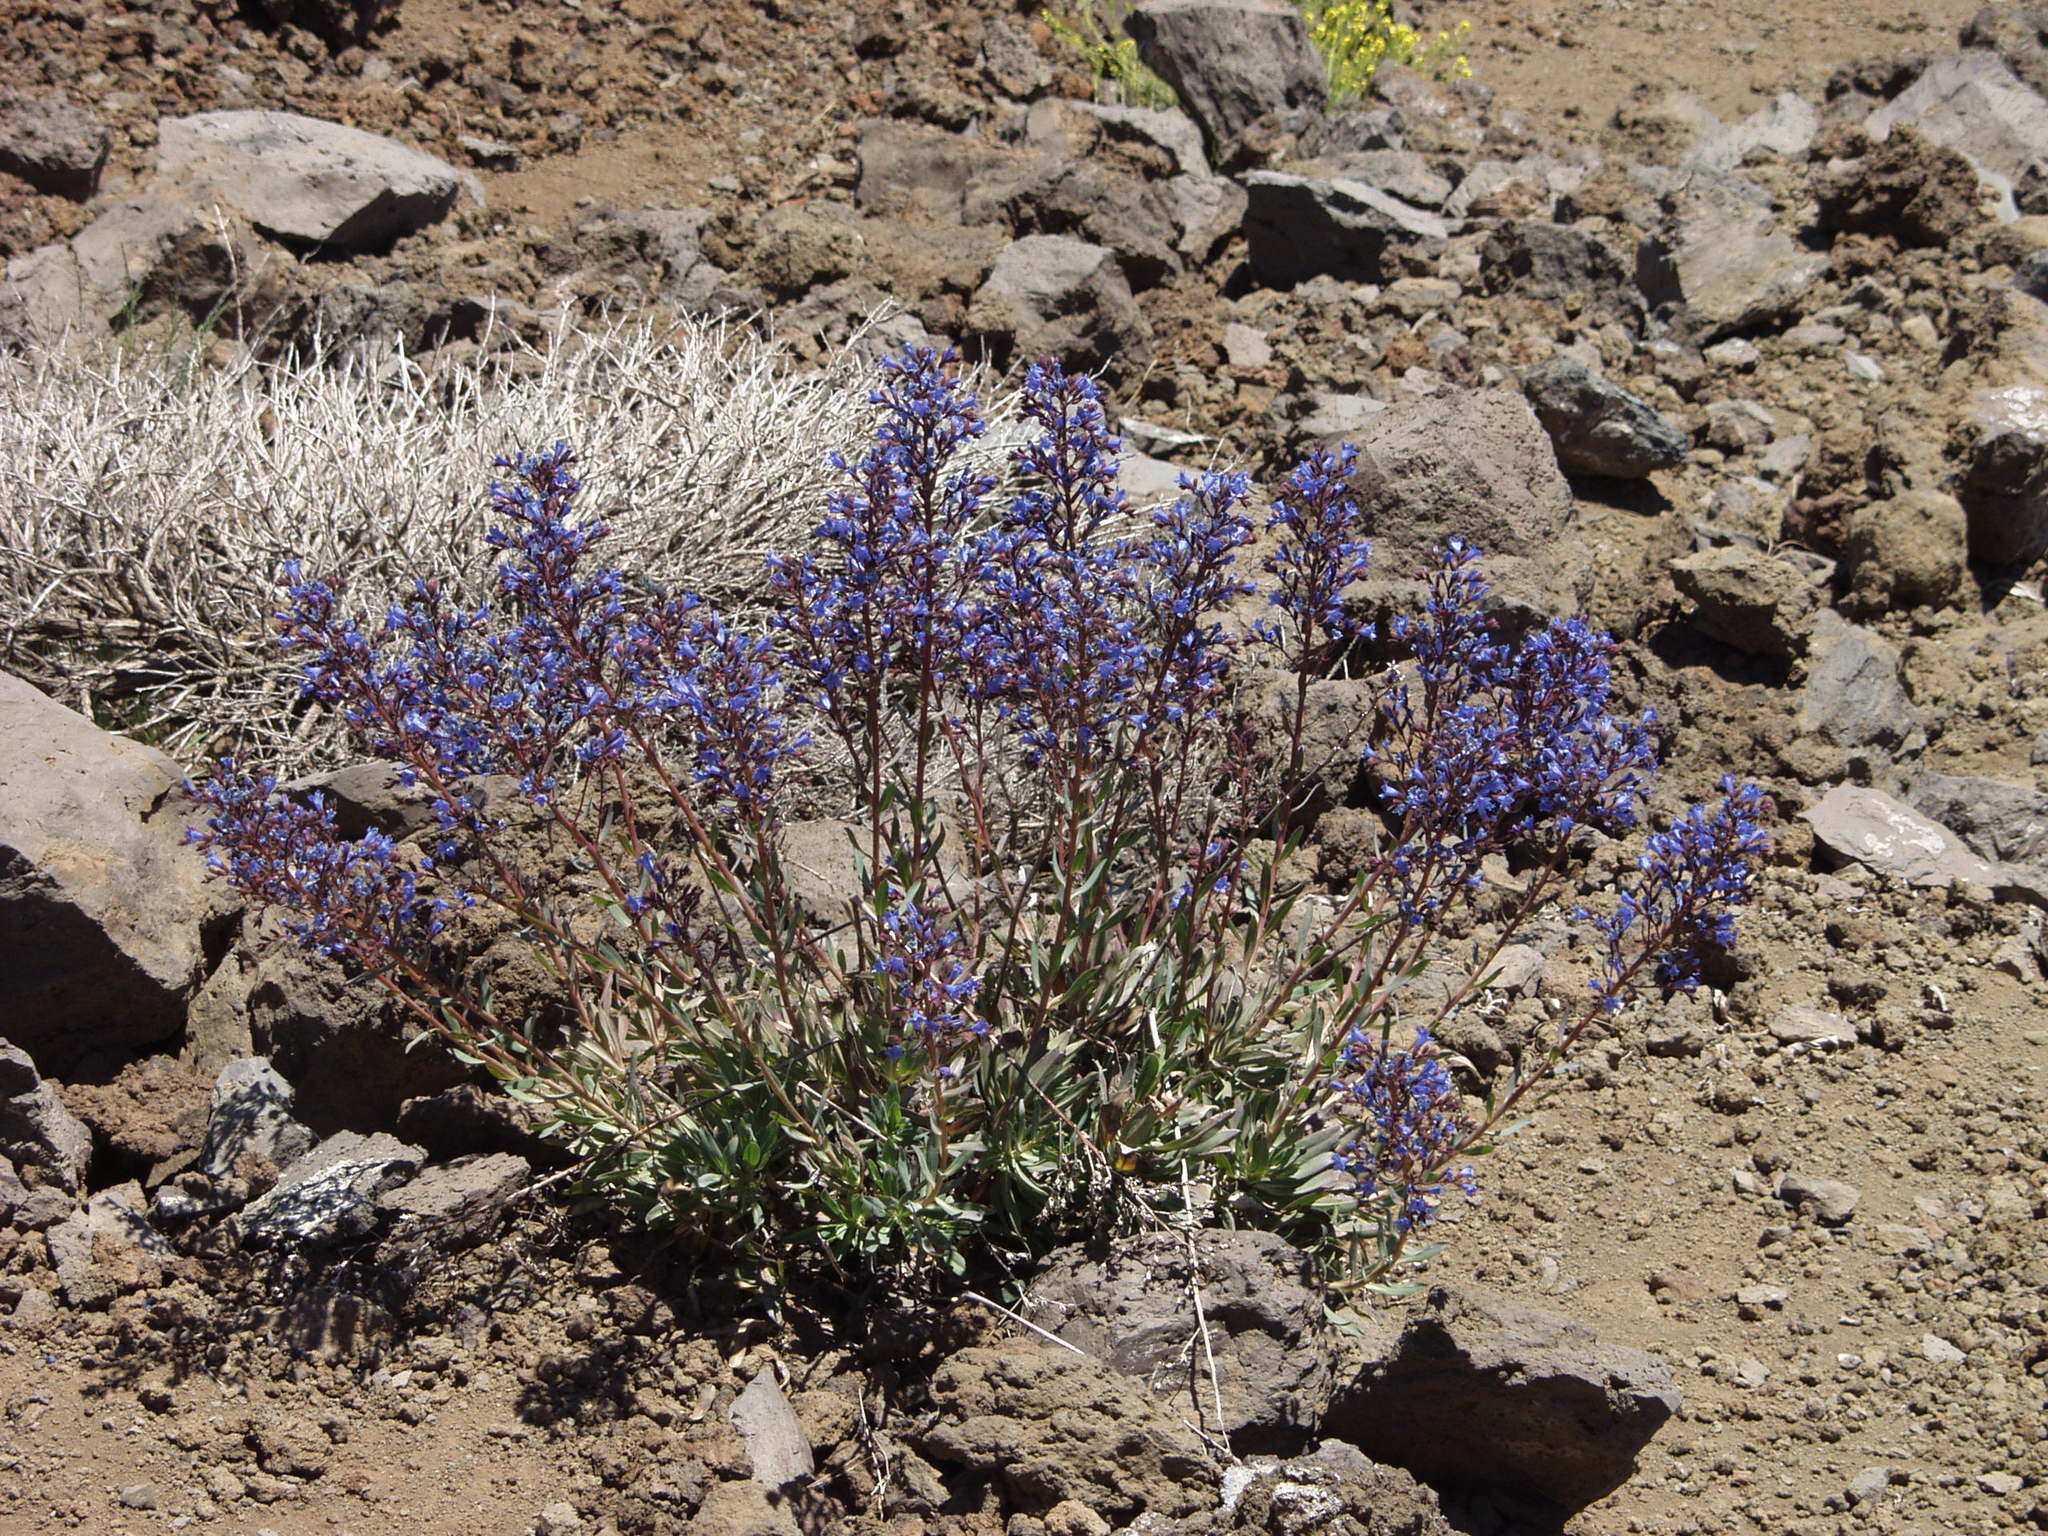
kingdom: Plantae
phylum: Tracheophyta
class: Magnoliopsida
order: Boraginales
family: Boraginaceae
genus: Echium
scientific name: Echium thyrsiflorum
